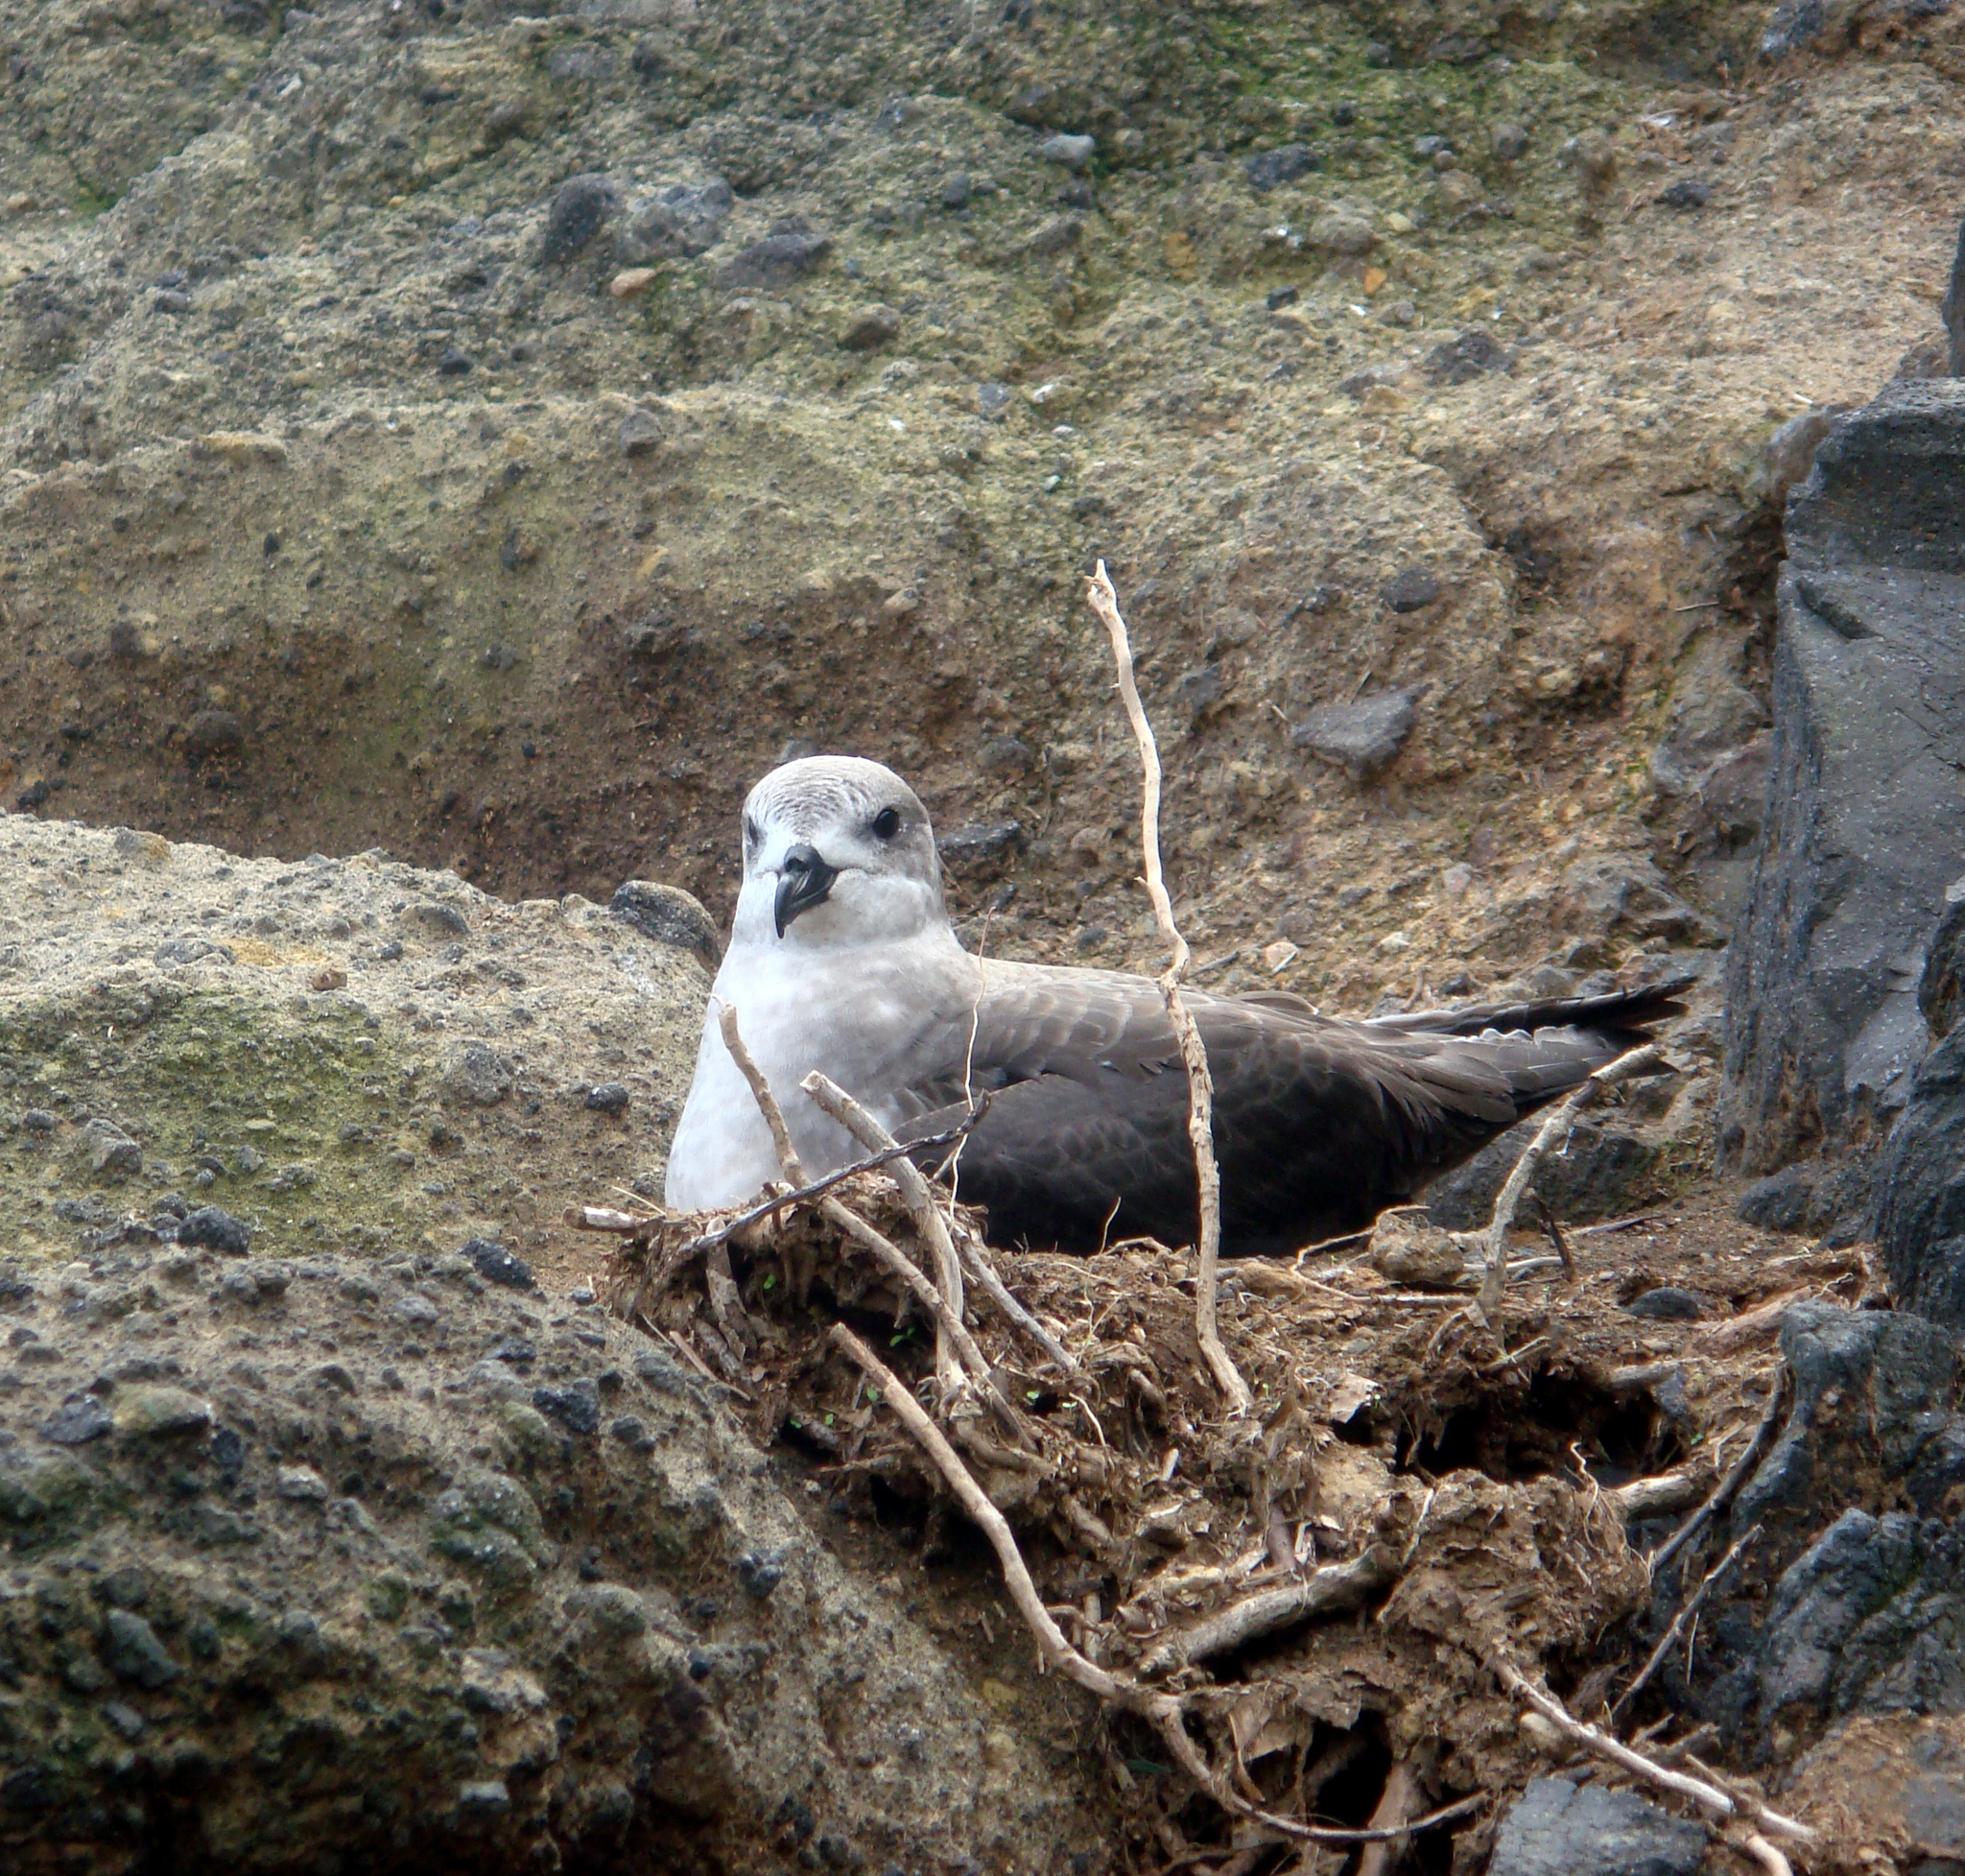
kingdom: Animalia
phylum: Chordata
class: Aves
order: Procellariiformes
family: Procellariidae
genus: Pterodroma
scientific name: Pterodroma neglecta
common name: Kermadec petrel
